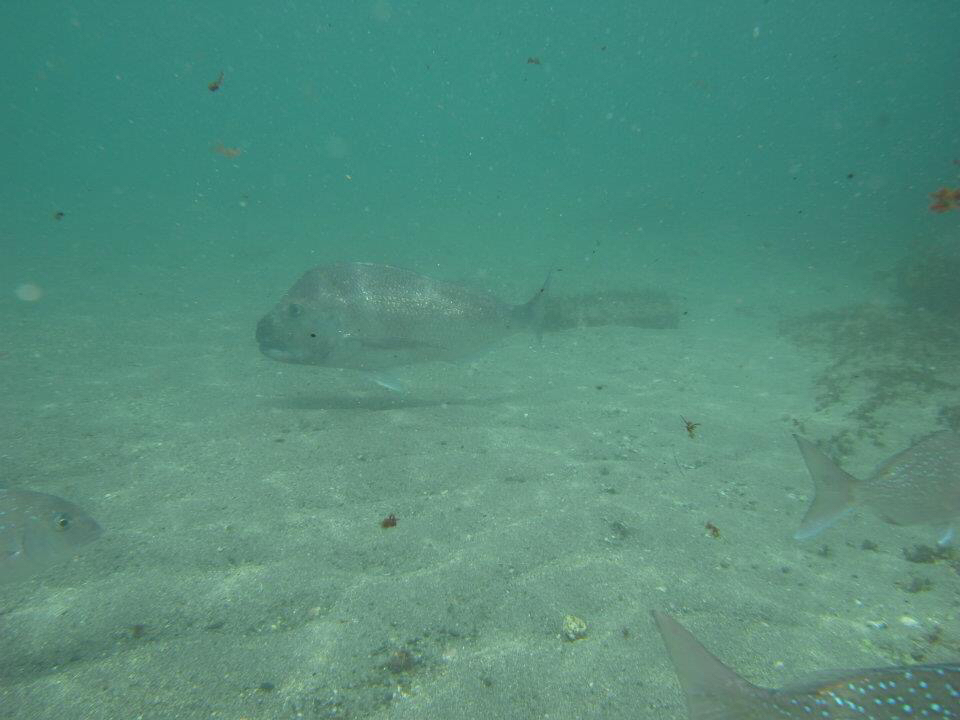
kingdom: Animalia
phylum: Chordata
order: Perciformes
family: Sparidae
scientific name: Sparidae
